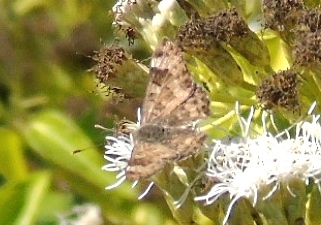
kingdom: Animalia
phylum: Arthropoda
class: Insecta
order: Lepidoptera
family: Riodinidae
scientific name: Riodinidae
